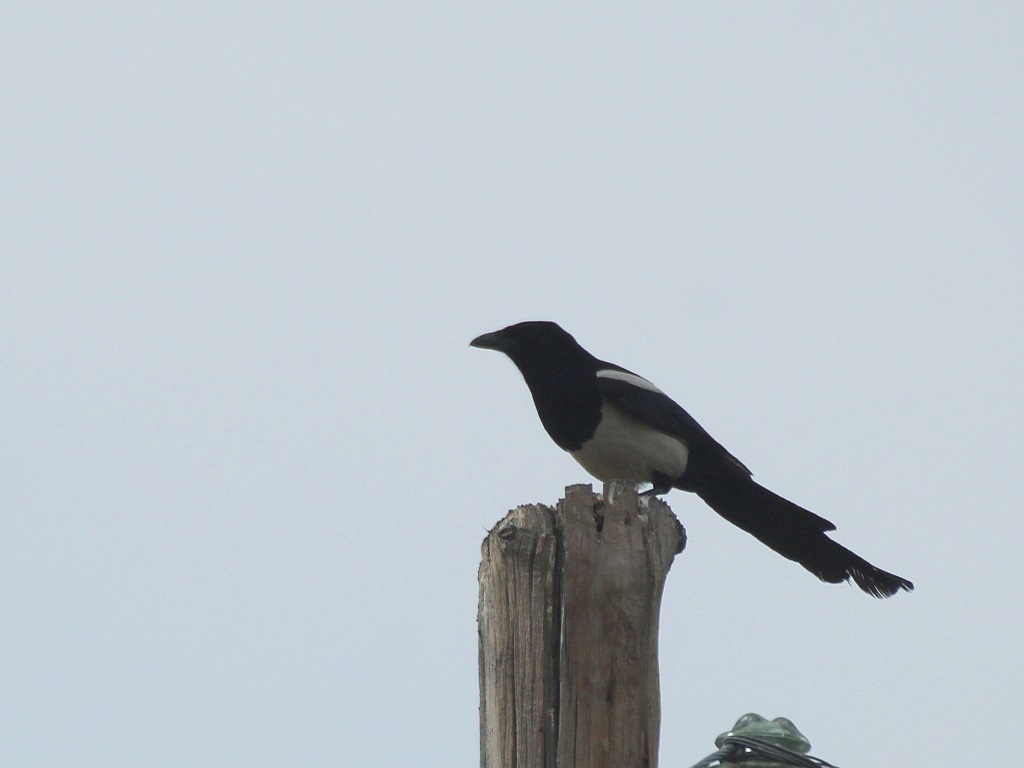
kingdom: Animalia
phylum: Chordata
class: Aves
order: Passeriformes
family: Corvidae
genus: Pica
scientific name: Pica pica
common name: Eurasian magpie
